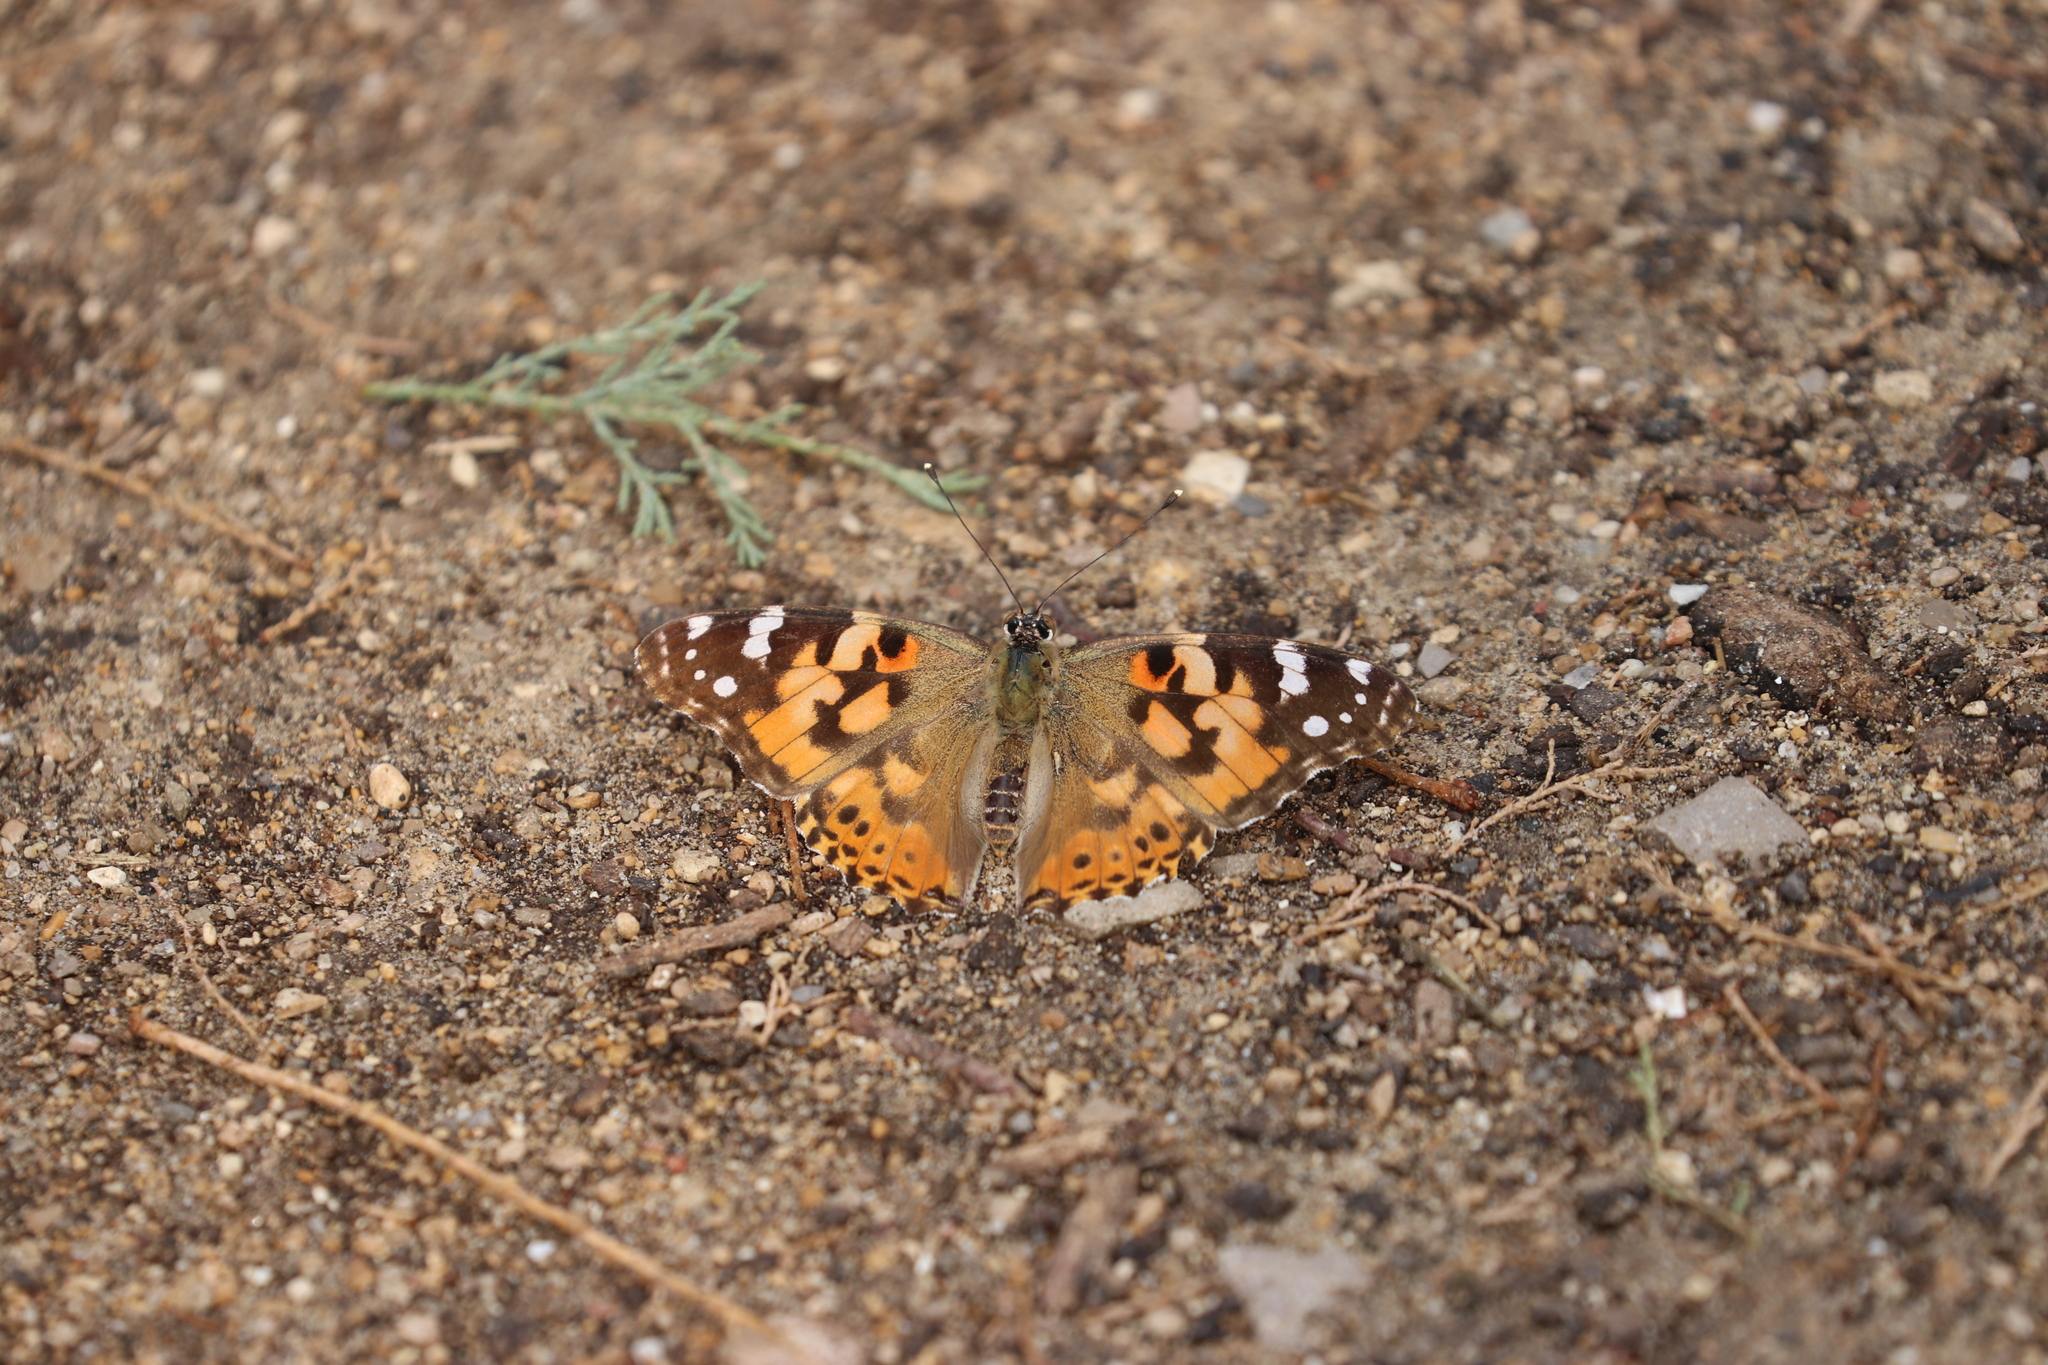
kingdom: Animalia
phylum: Arthropoda
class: Insecta
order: Lepidoptera
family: Nymphalidae
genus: Vanessa
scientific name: Vanessa cardui
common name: Painted lady
